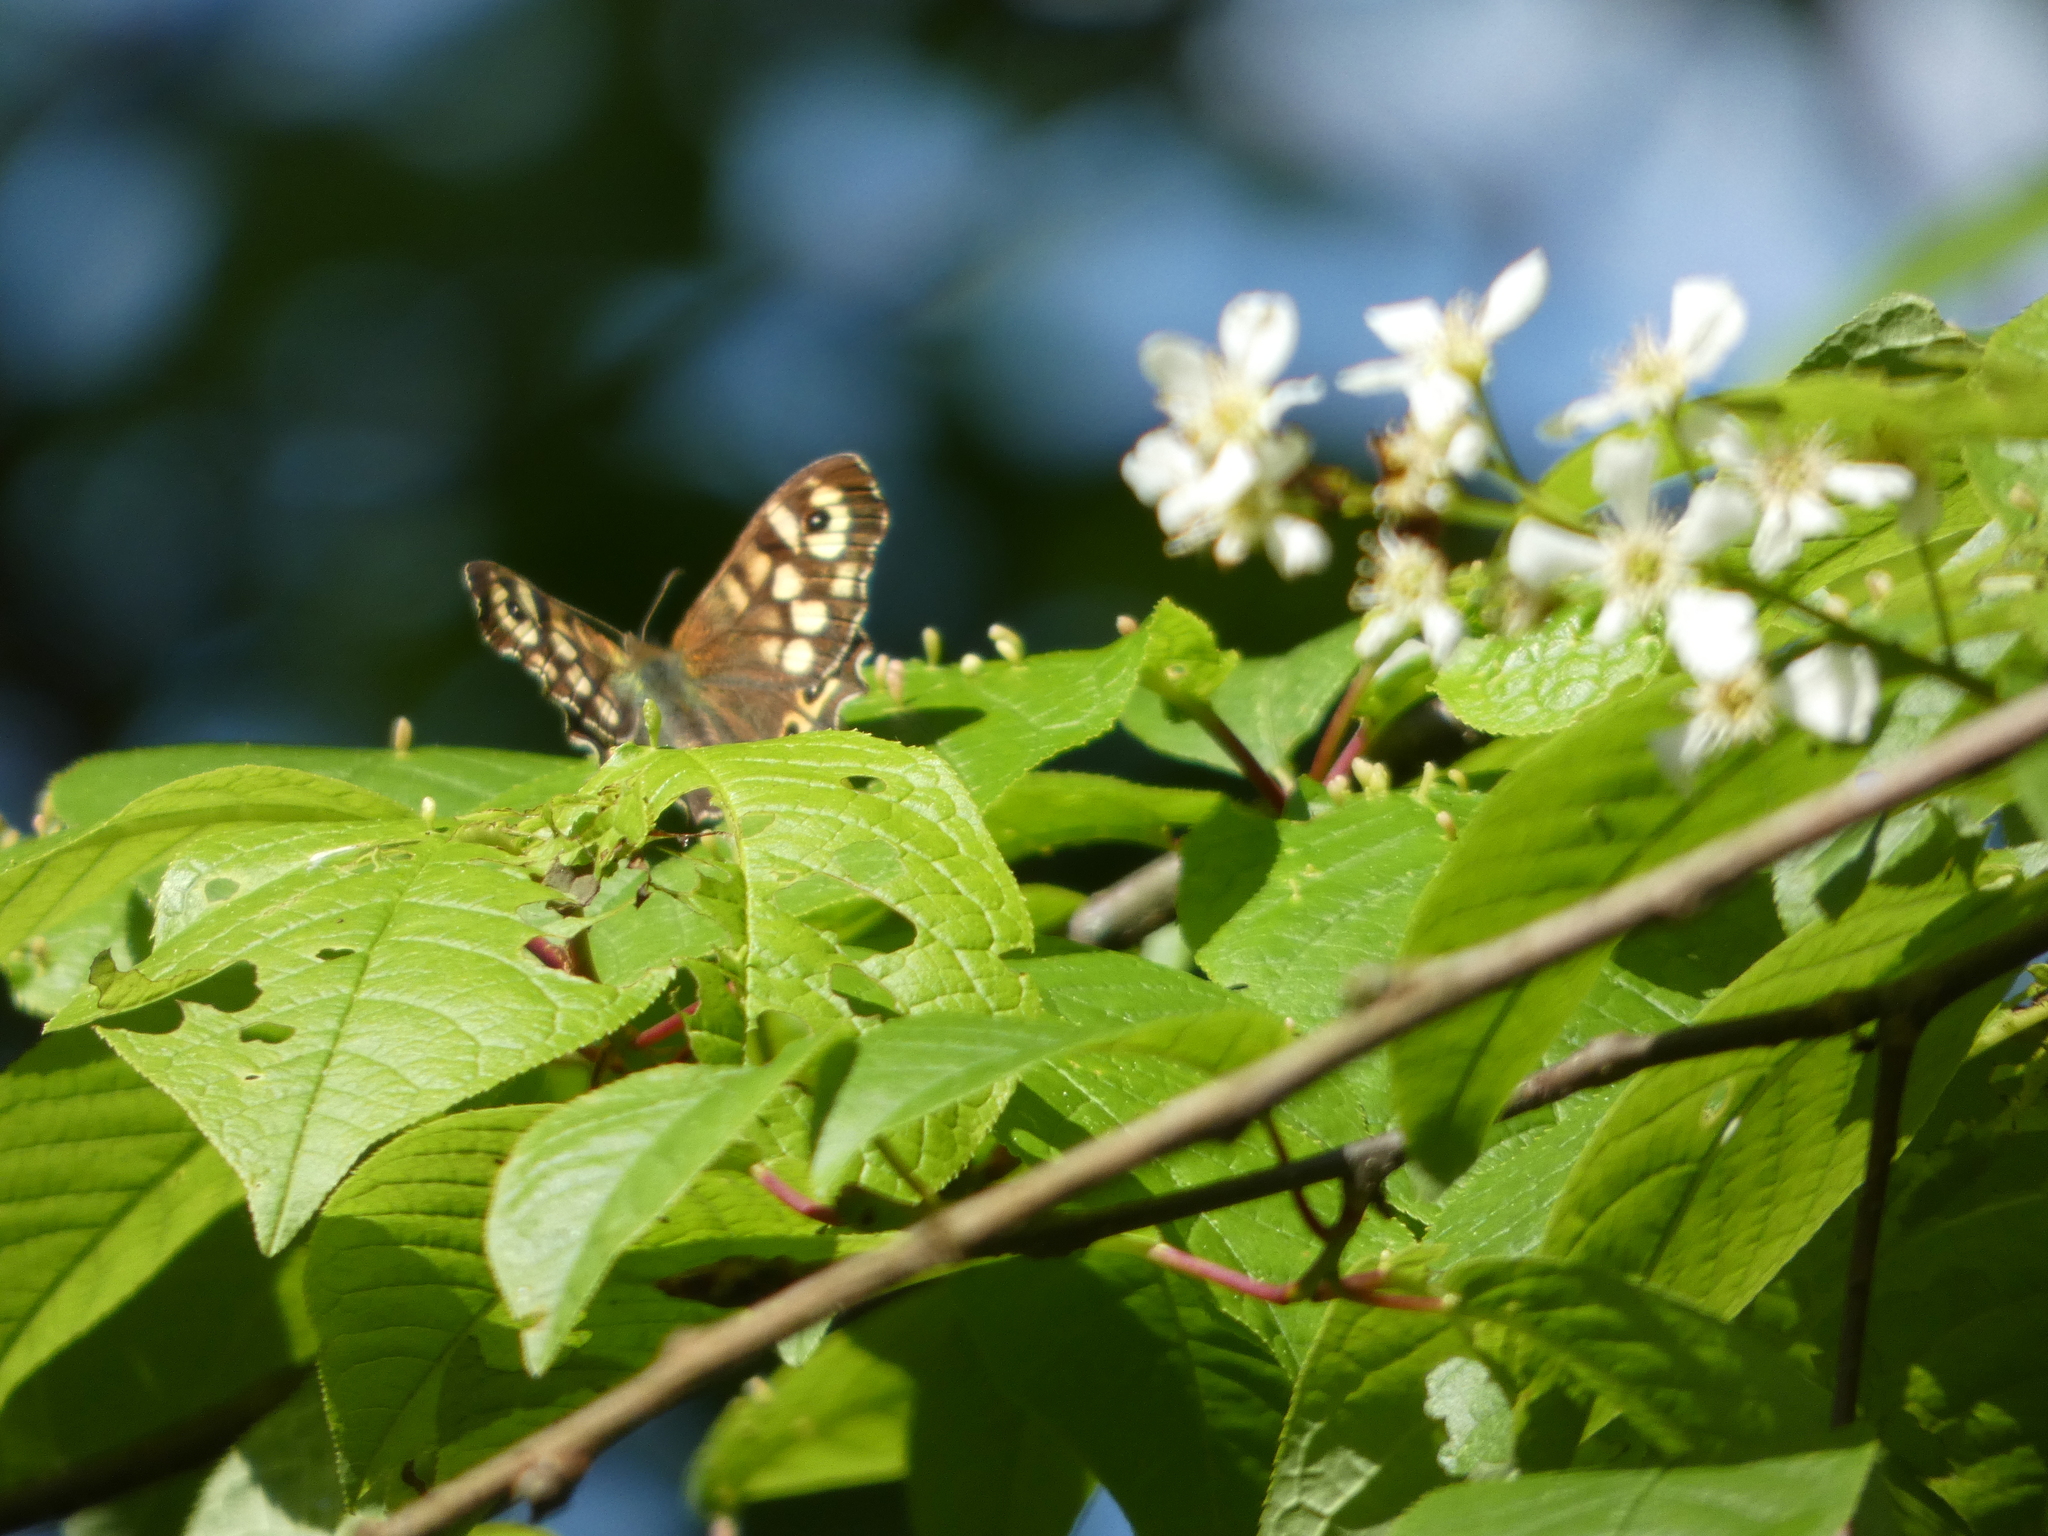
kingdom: Animalia
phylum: Arthropoda
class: Insecta
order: Lepidoptera
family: Nymphalidae
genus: Pararge
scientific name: Pararge aegeria
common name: Speckled wood
